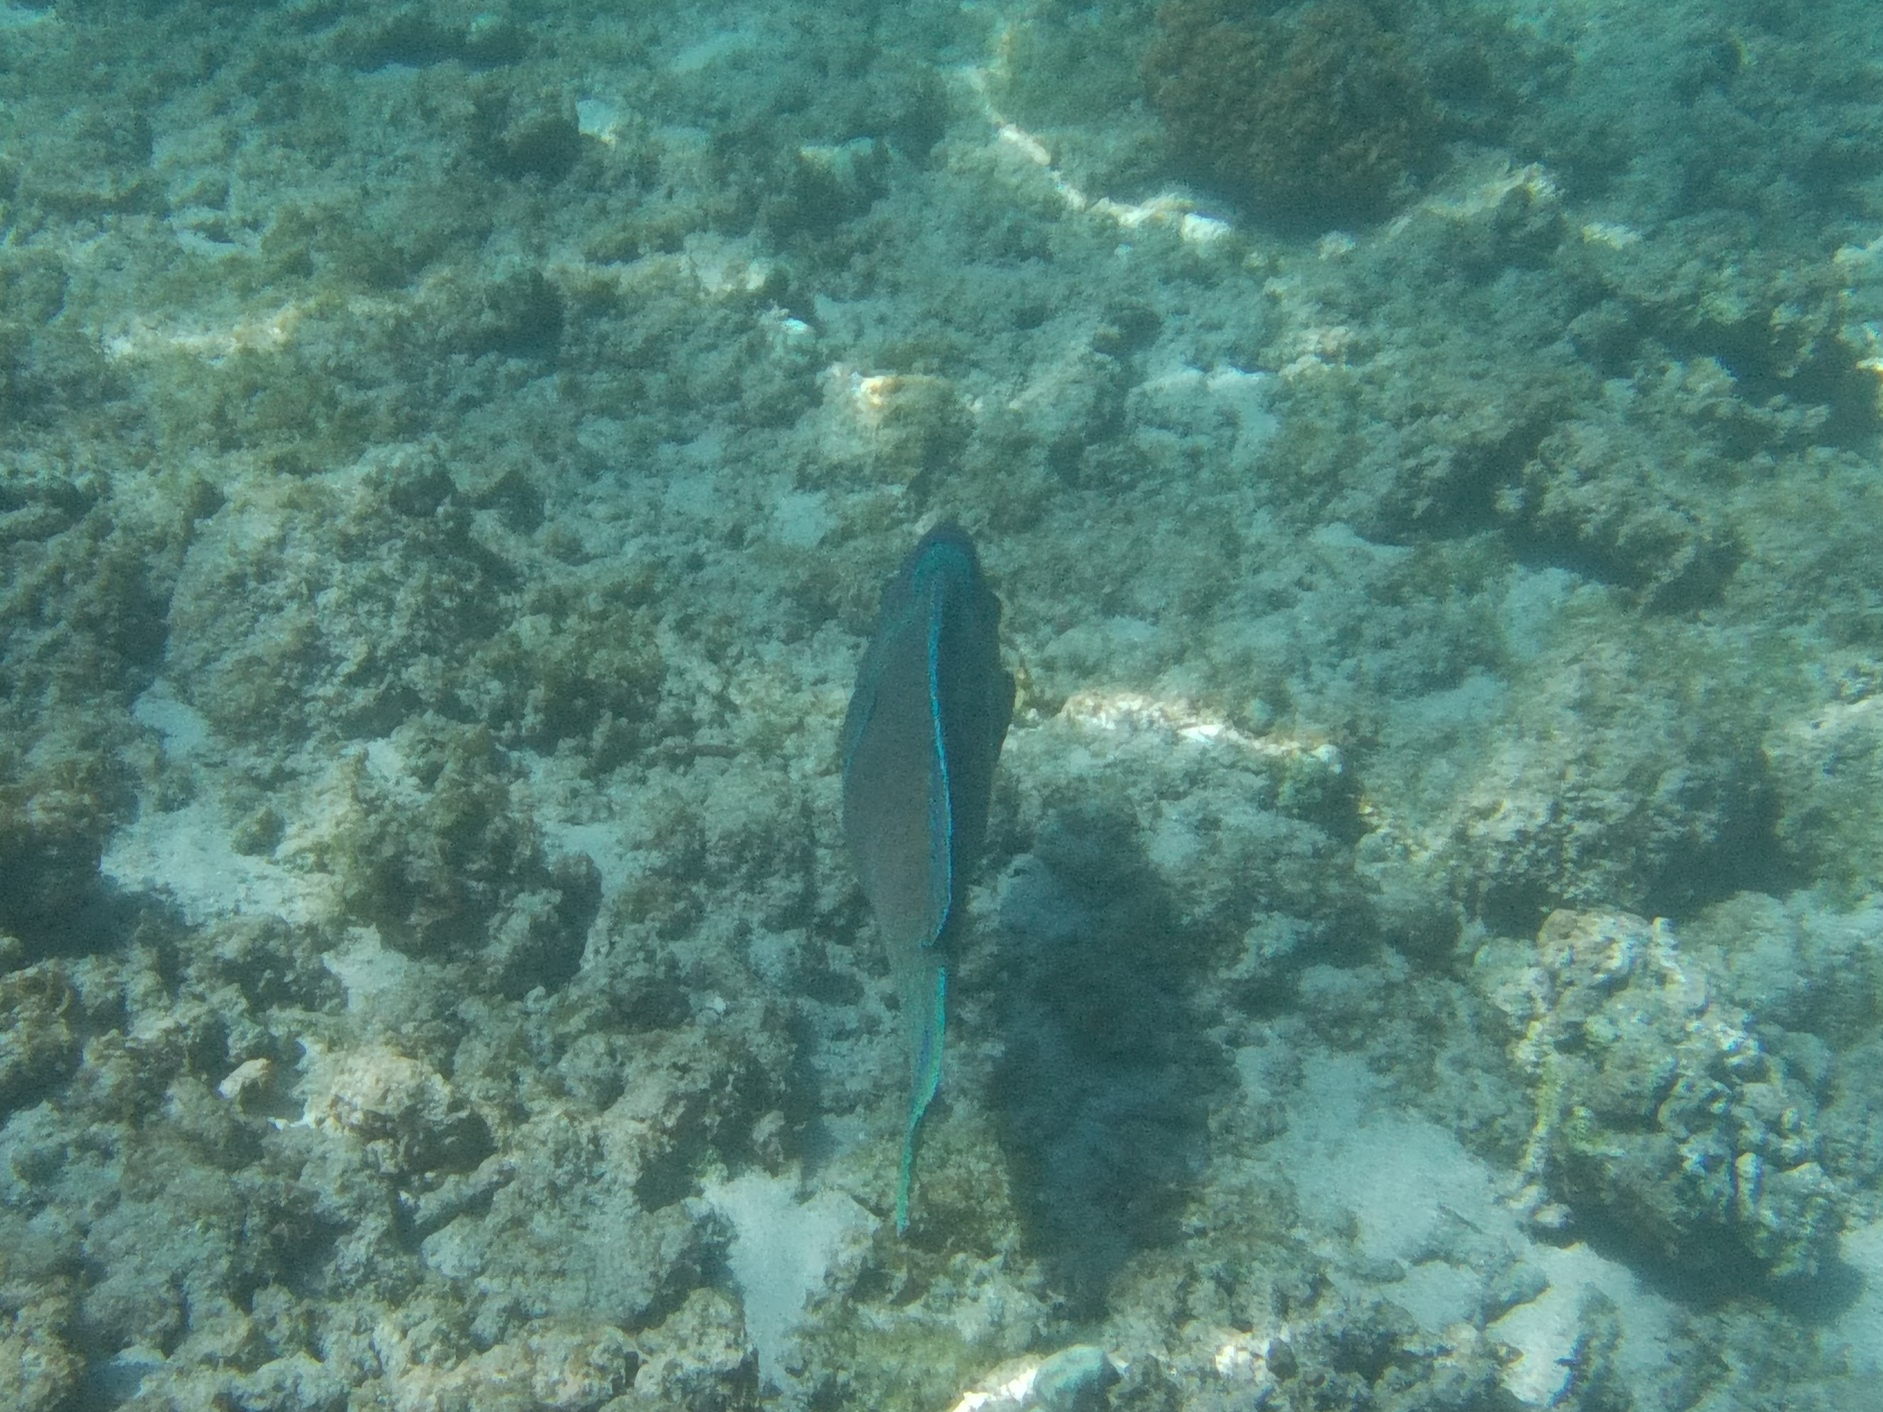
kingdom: Animalia
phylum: Chordata
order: Perciformes
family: Scaridae
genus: Scarus
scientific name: Scarus perrico
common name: Bumphead parrotfish
